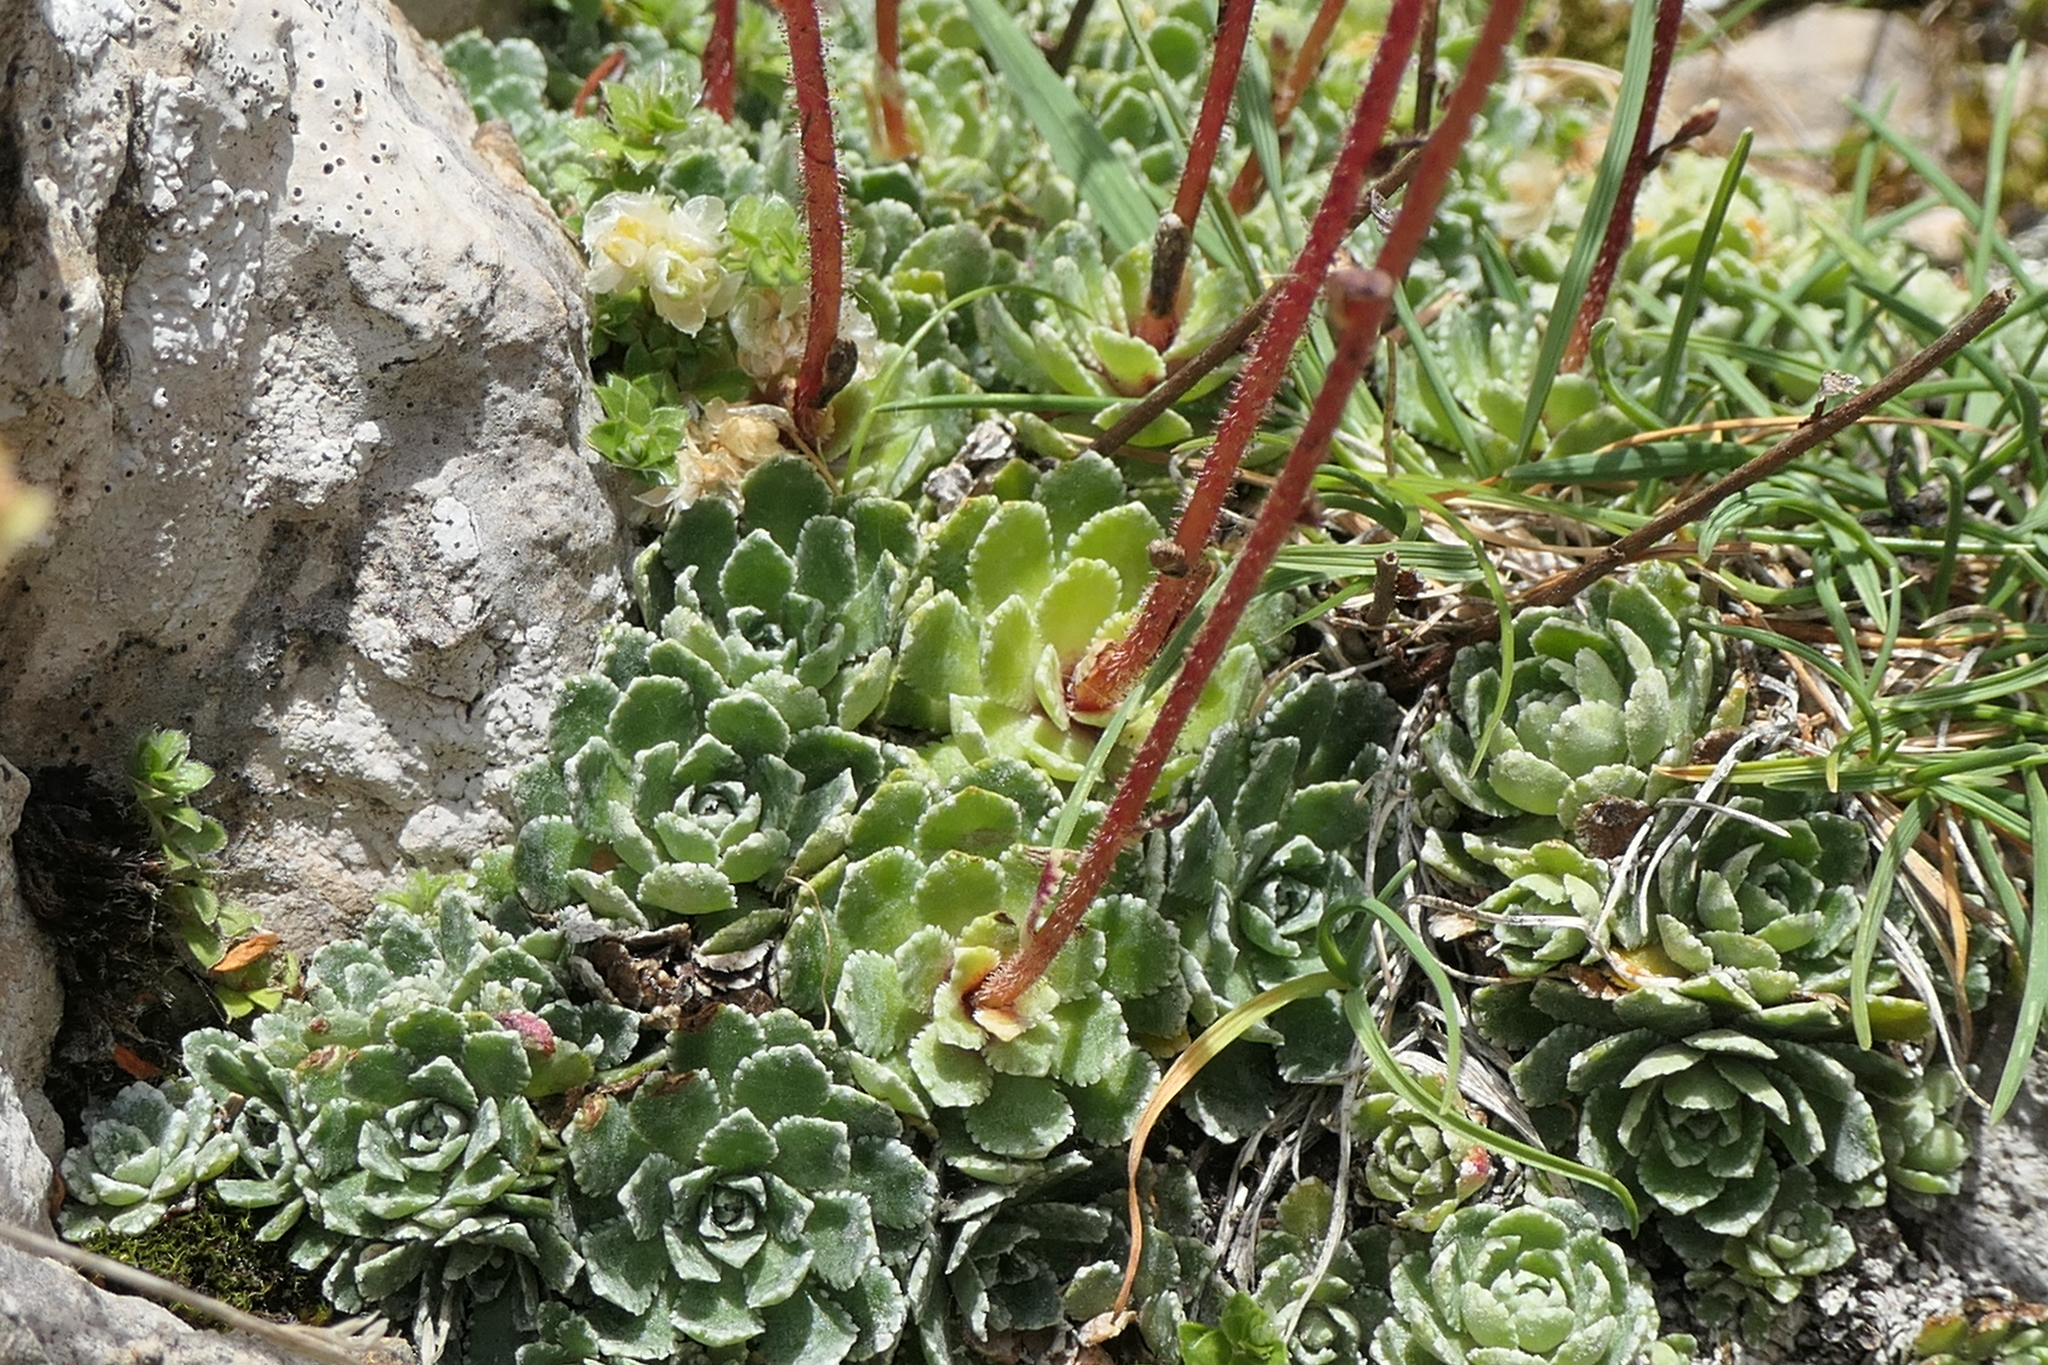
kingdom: Plantae
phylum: Tracheophyta
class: Magnoliopsida
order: Saxifragales
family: Saxifragaceae
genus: Saxifraga
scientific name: Saxifraga paniculata
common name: Livelong saxifrage
